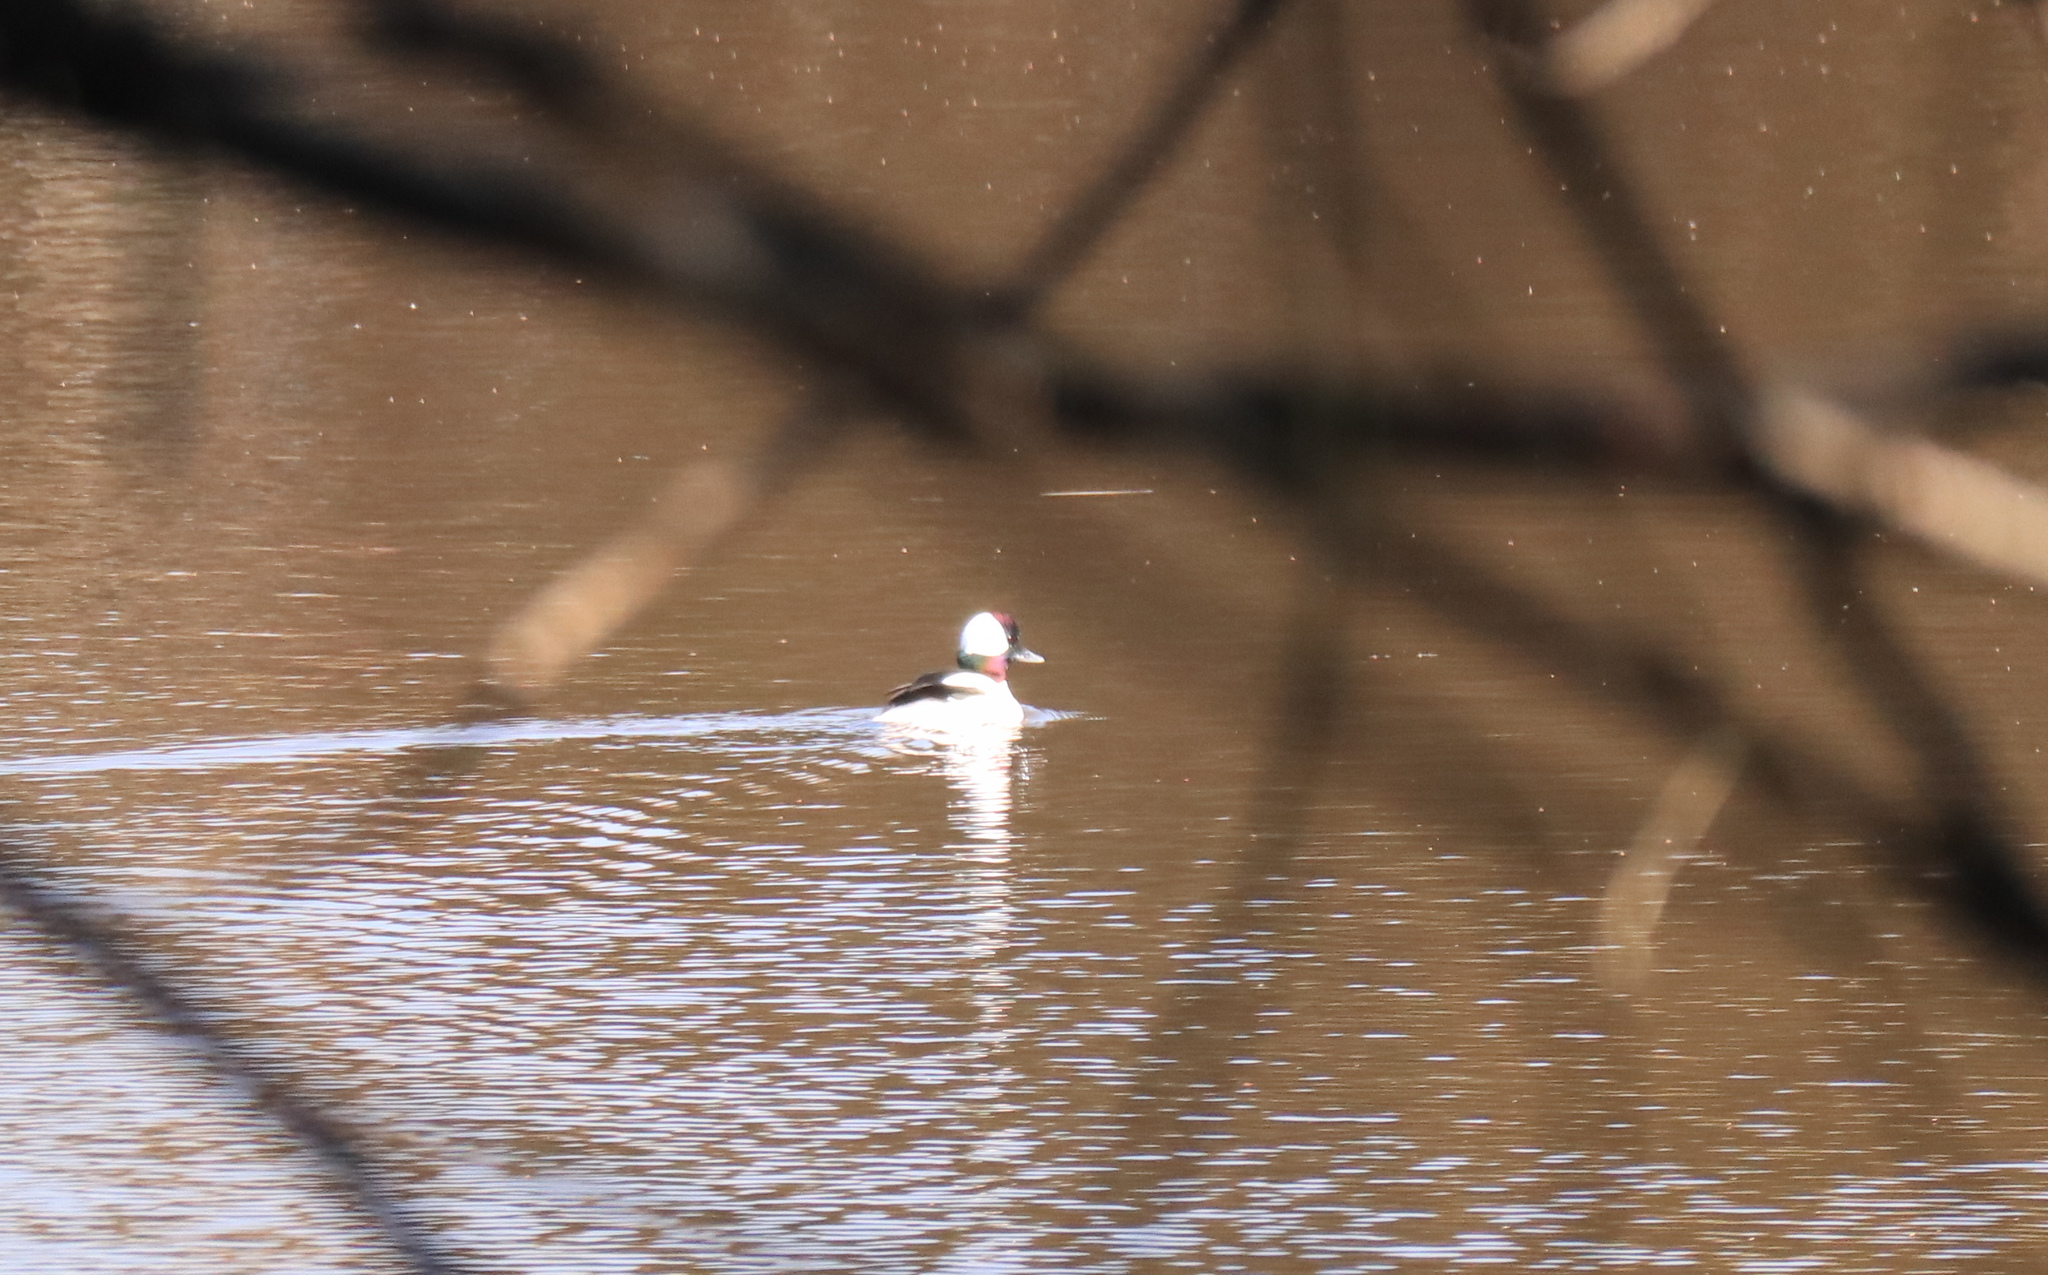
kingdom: Animalia
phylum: Chordata
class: Aves
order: Anseriformes
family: Anatidae
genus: Bucephala
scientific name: Bucephala albeola
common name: Bufflehead
